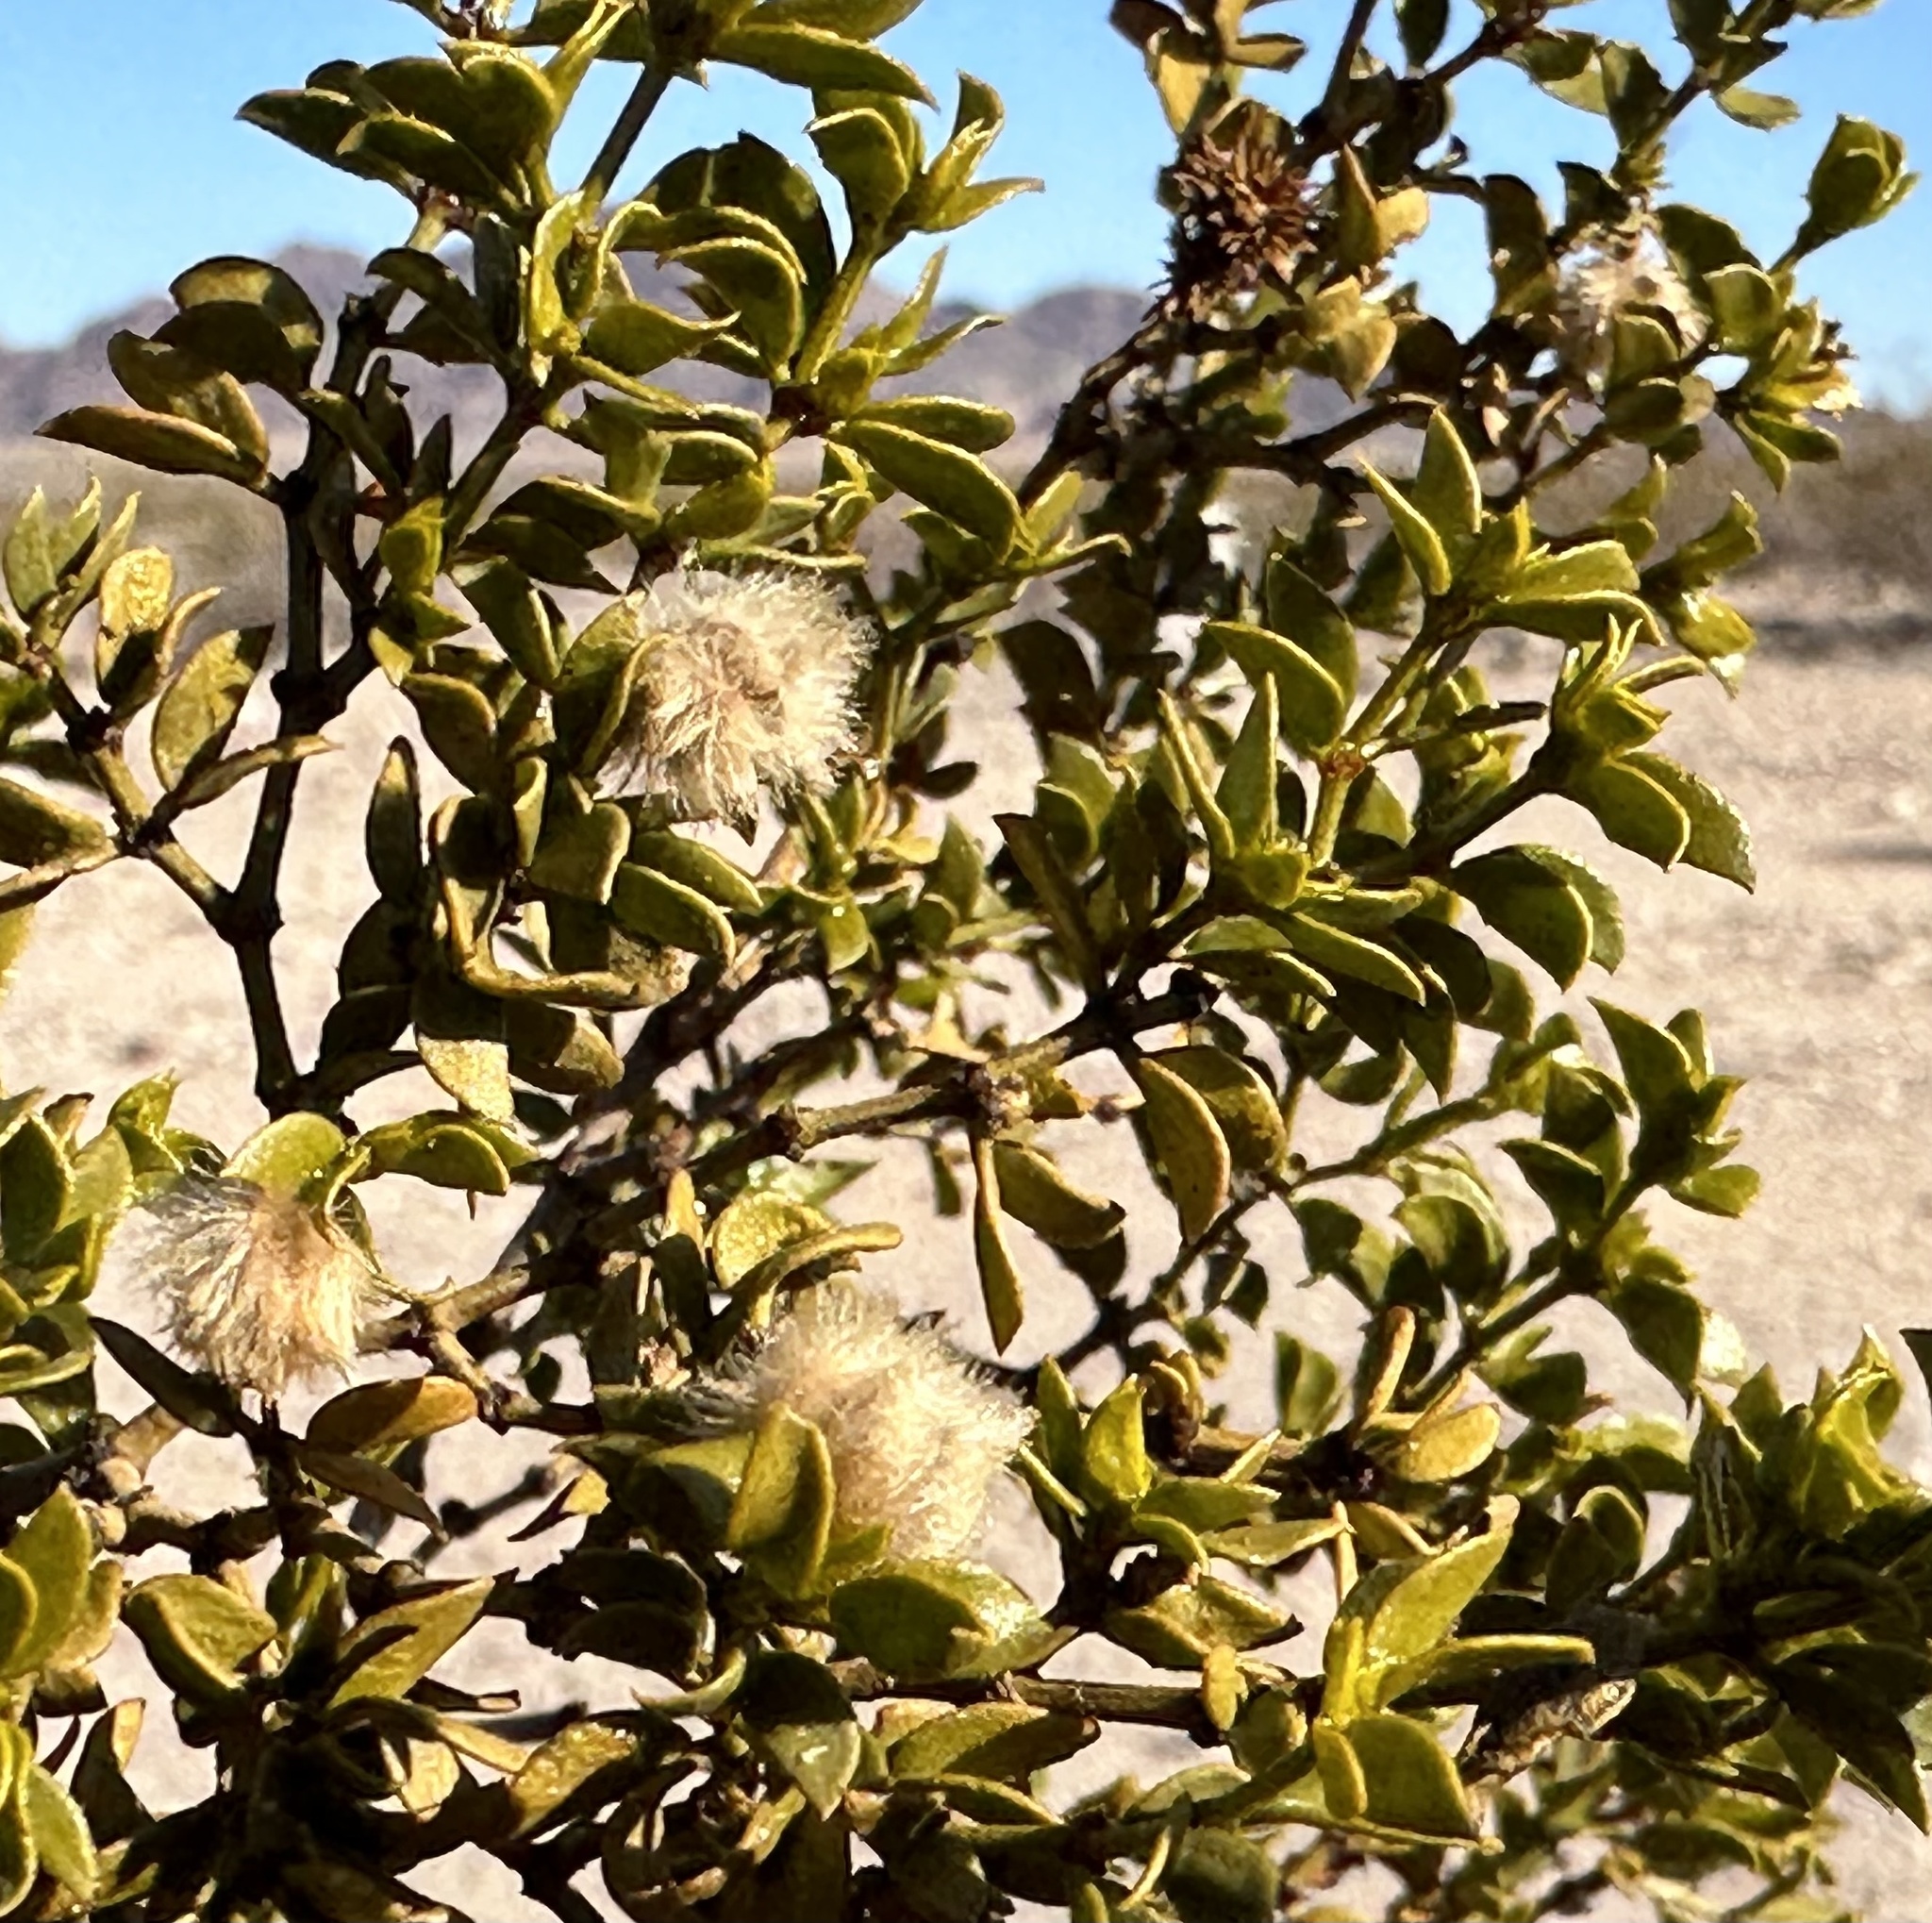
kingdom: Plantae
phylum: Tracheophyta
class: Magnoliopsida
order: Zygophyllales
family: Zygophyllaceae
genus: Larrea
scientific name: Larrea tridentata
